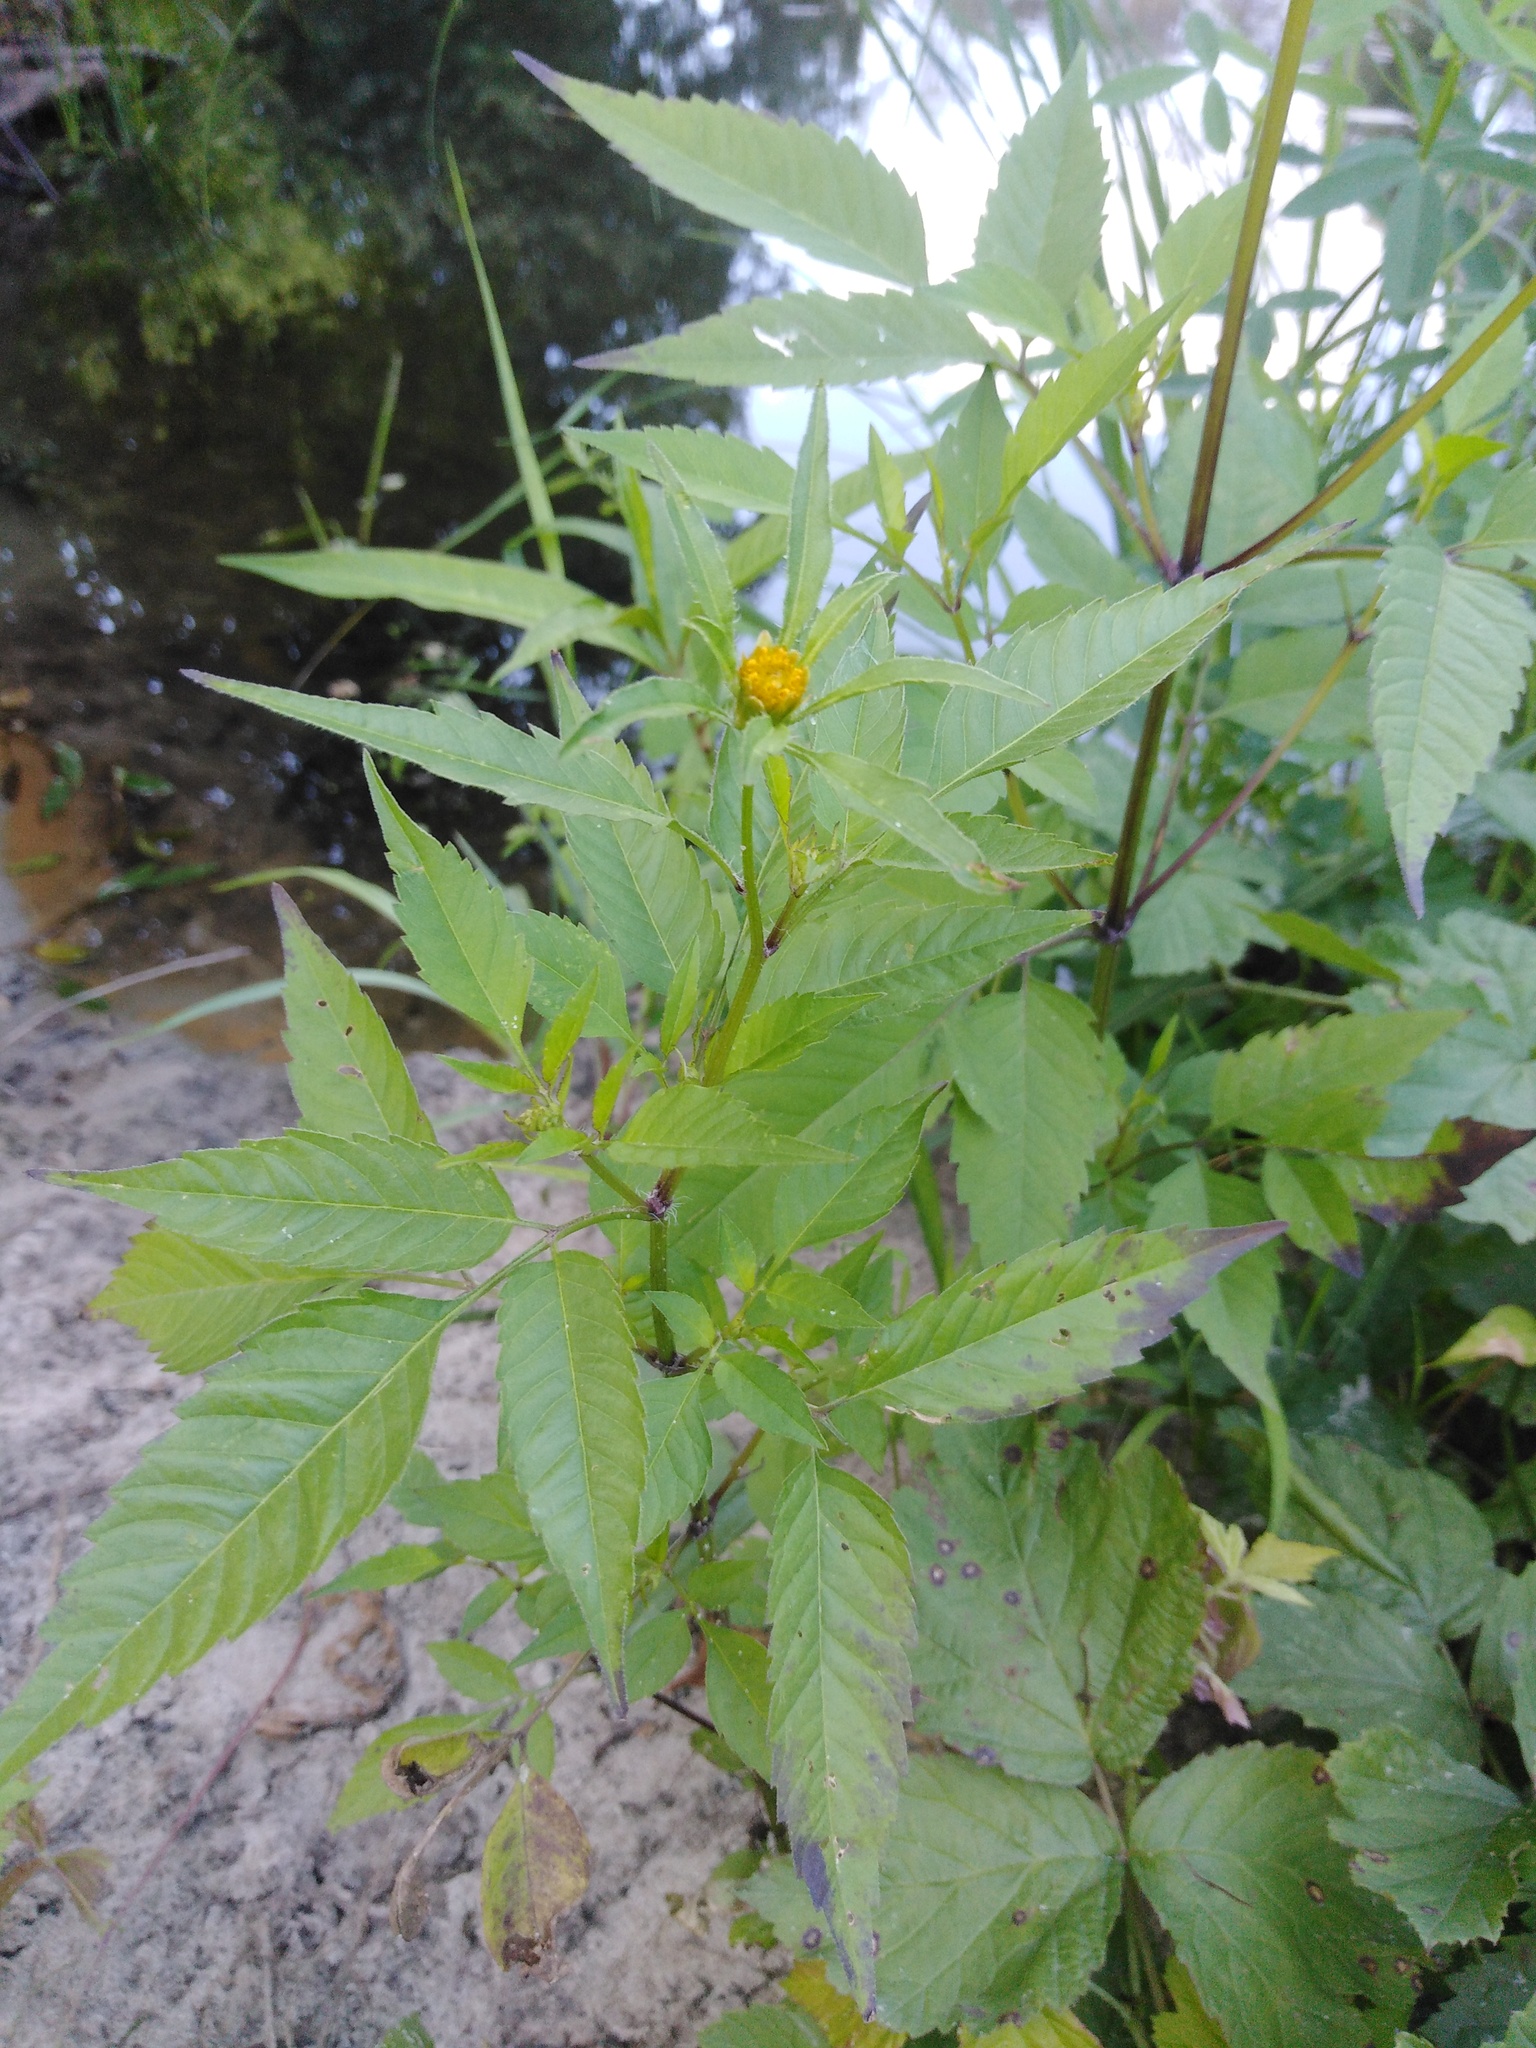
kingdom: Plantae
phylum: Tracheophyta
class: Magnoliopsida
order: Asterales
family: Asteraceae
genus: Bidens
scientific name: Bidens frondosa
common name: Beggarticks
